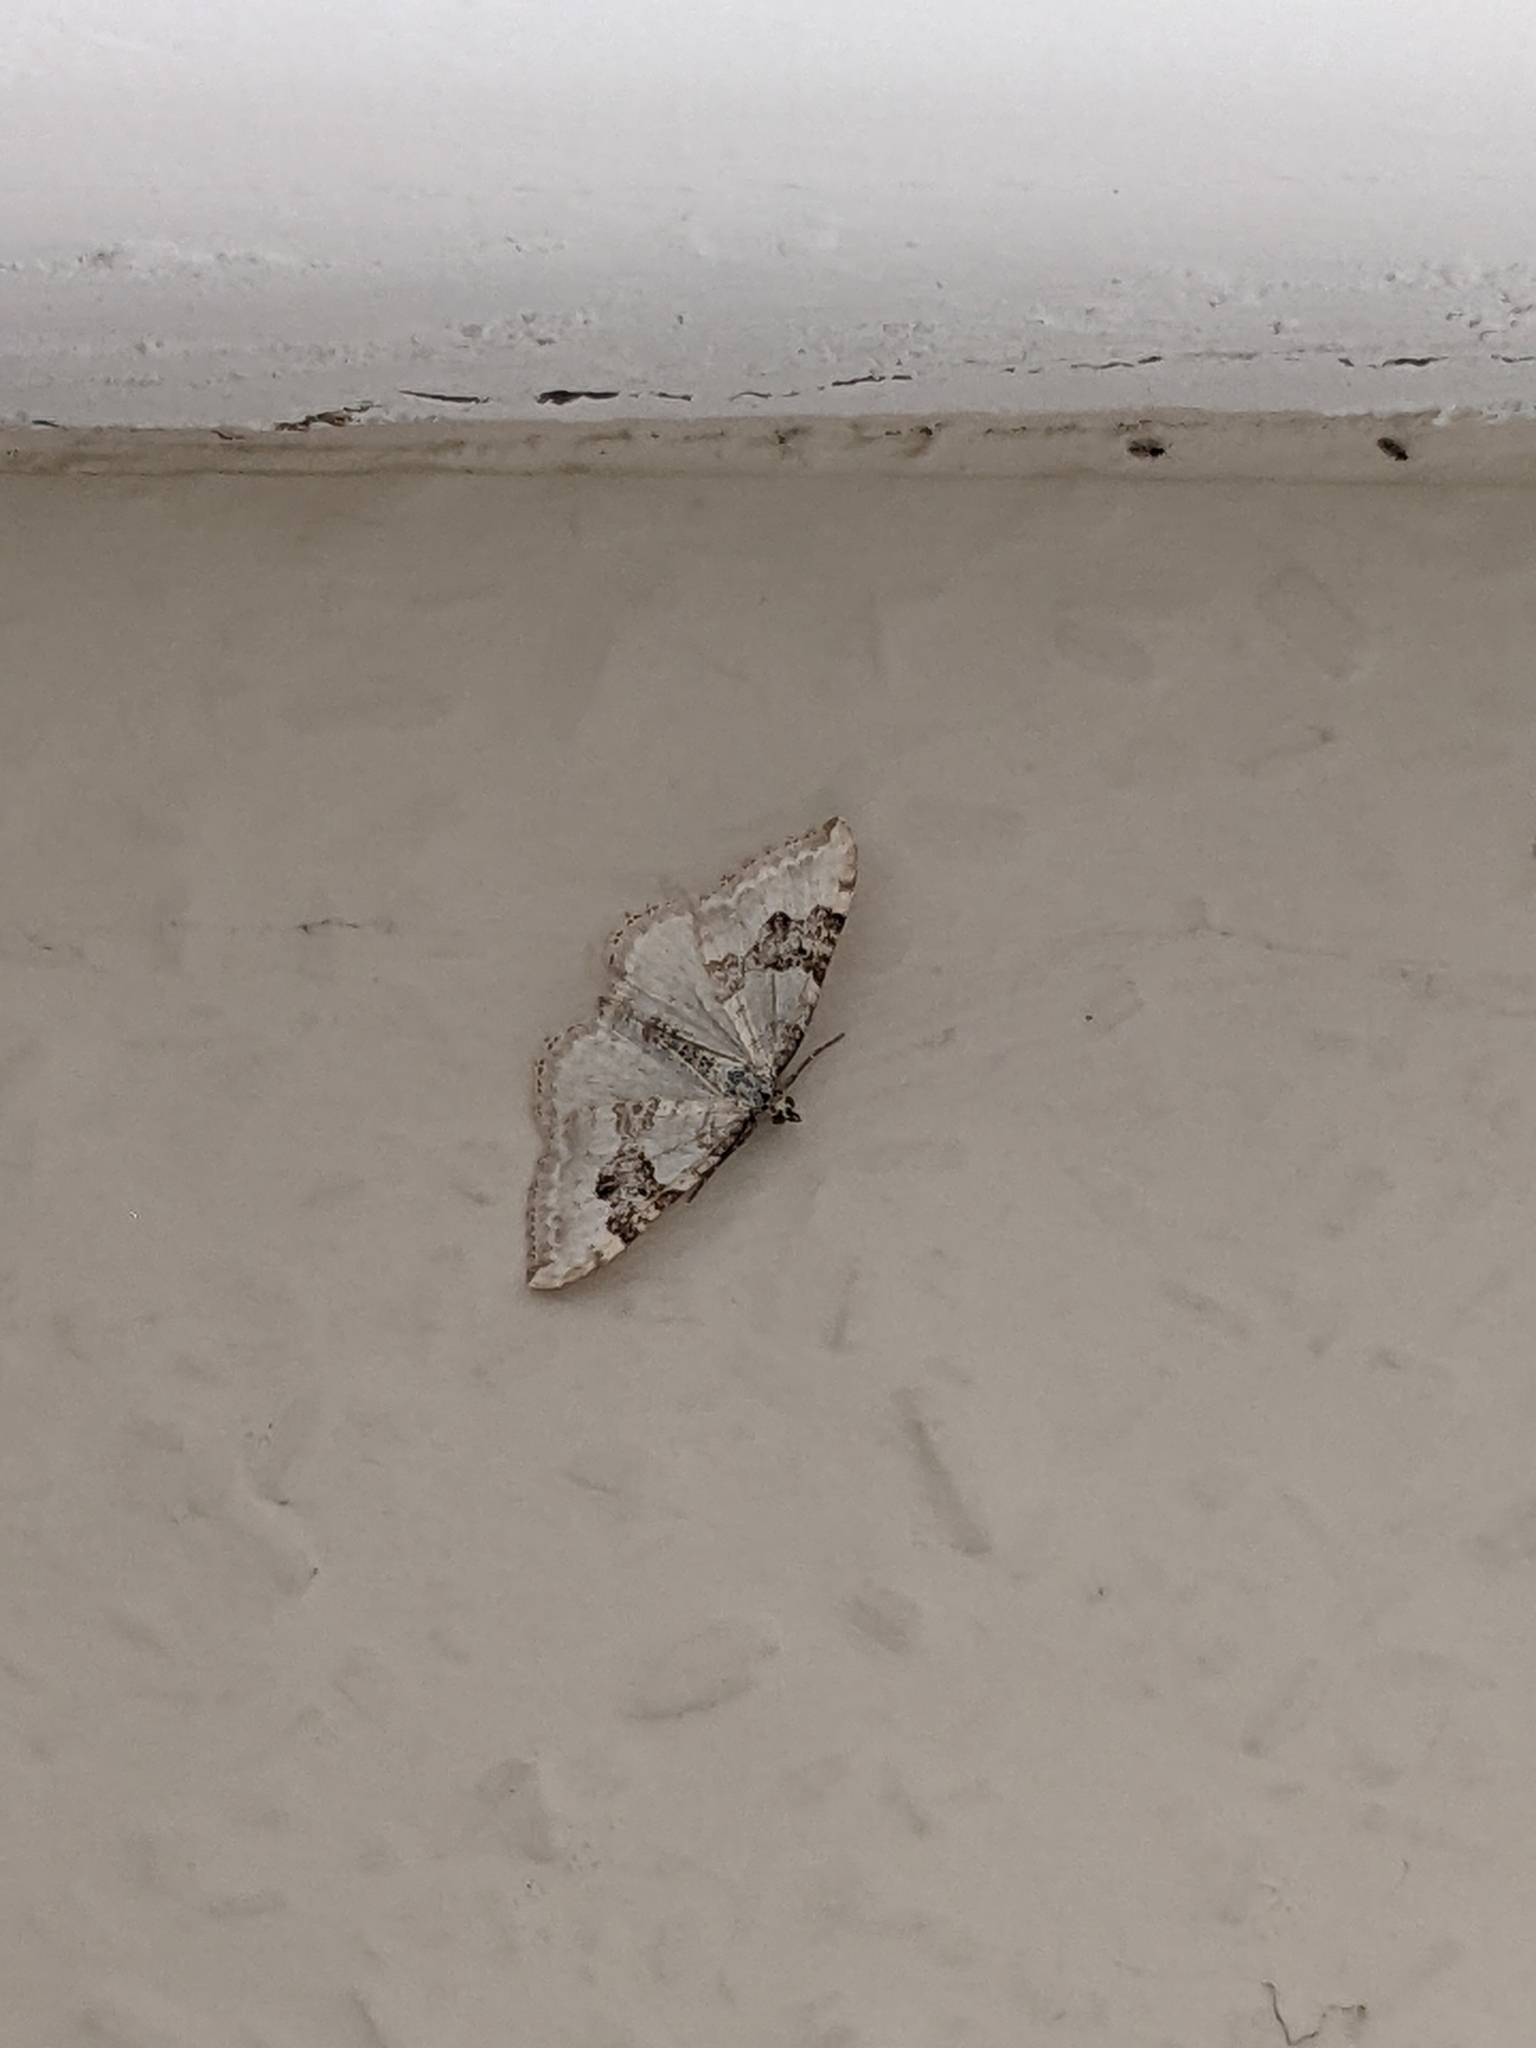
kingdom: Animalia
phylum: Arthropoda
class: Insecta
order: Lepidoptera
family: Geometridae
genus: Xanthorhoe
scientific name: Xanthorhoe montanata
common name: Silver-ground carpet
